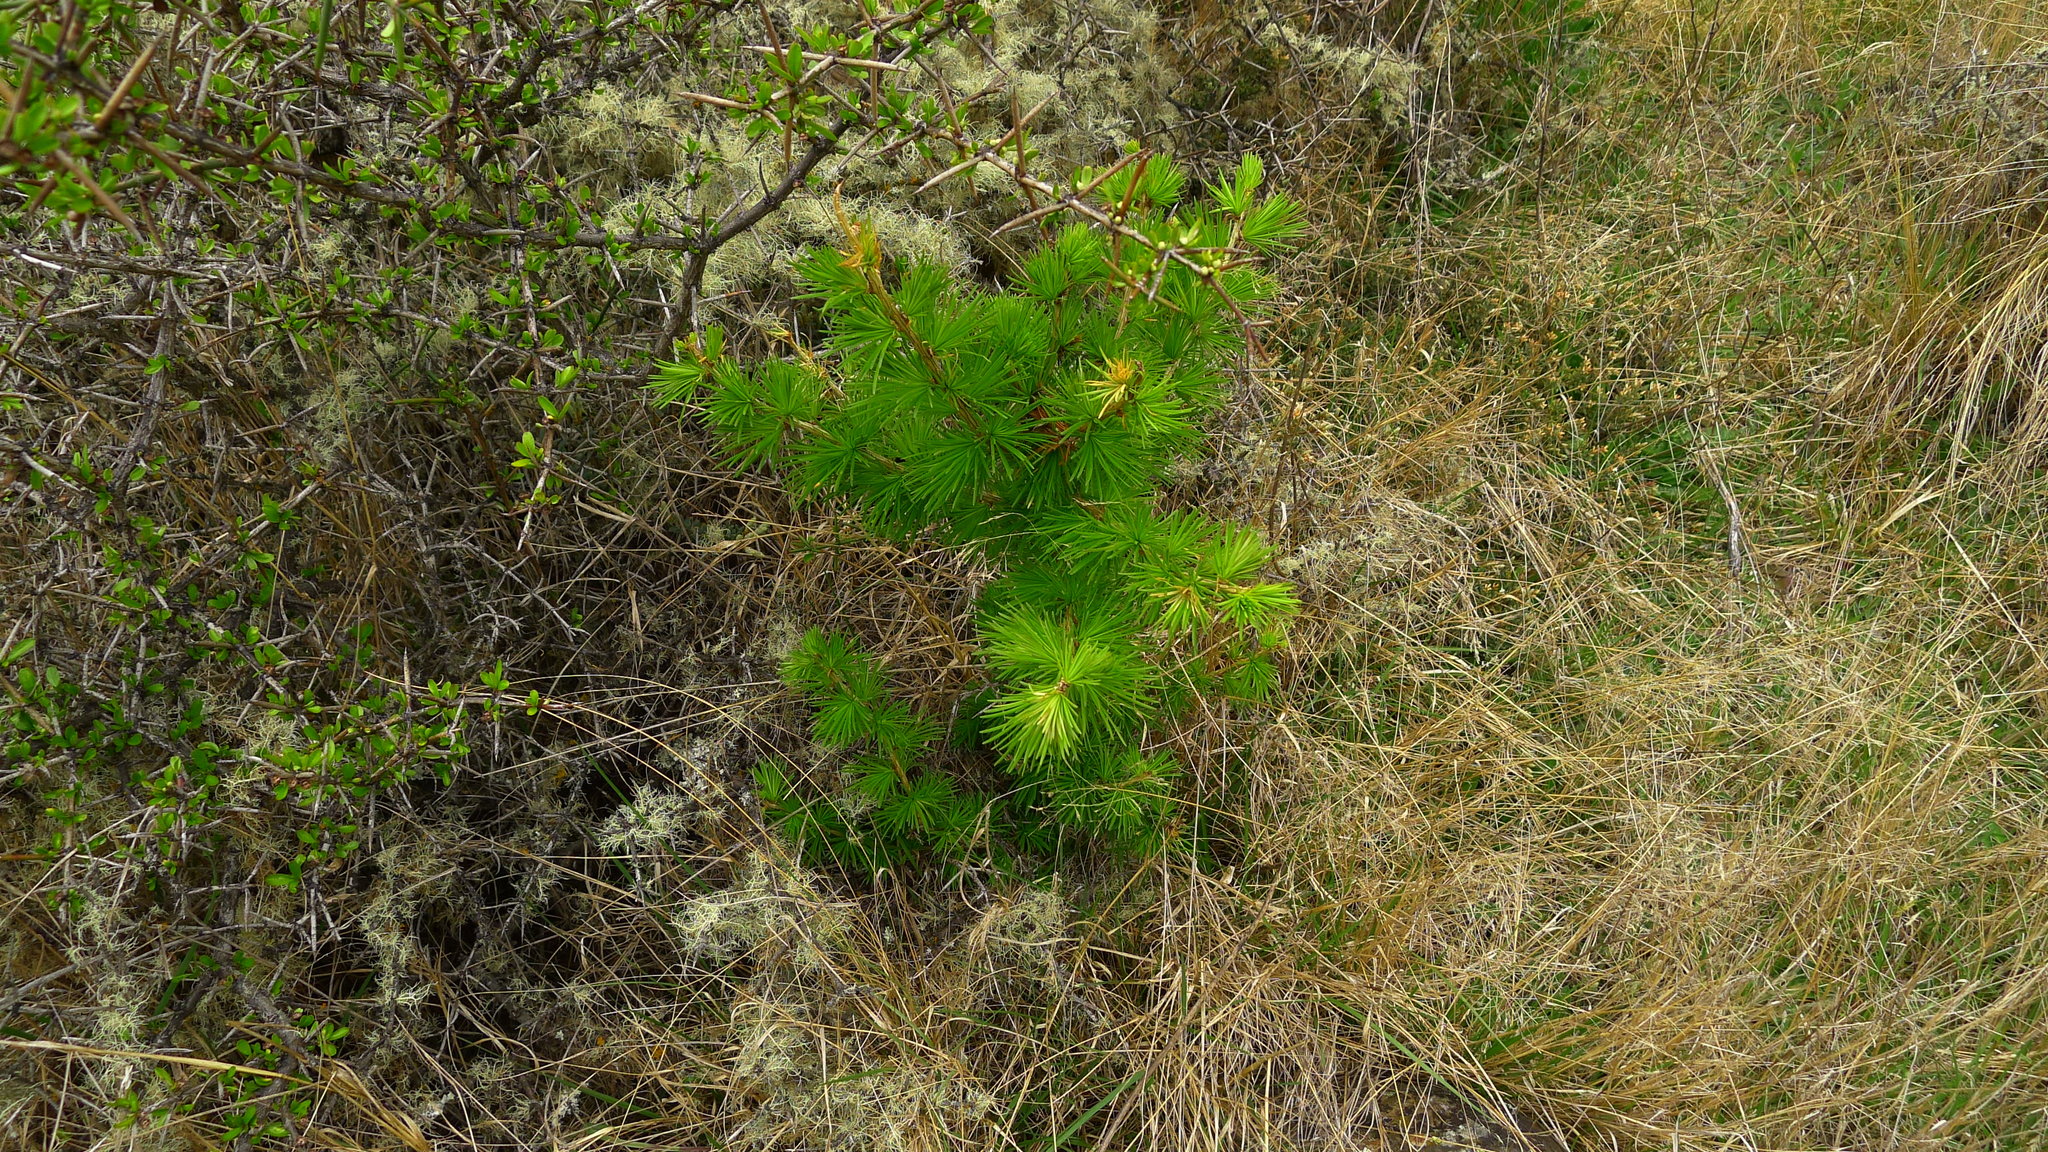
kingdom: Plantae
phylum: Tracheophyta
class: Pinopsida
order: Pinales
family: Pinaceae
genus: Larix
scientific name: Larix decidua
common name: European larch
